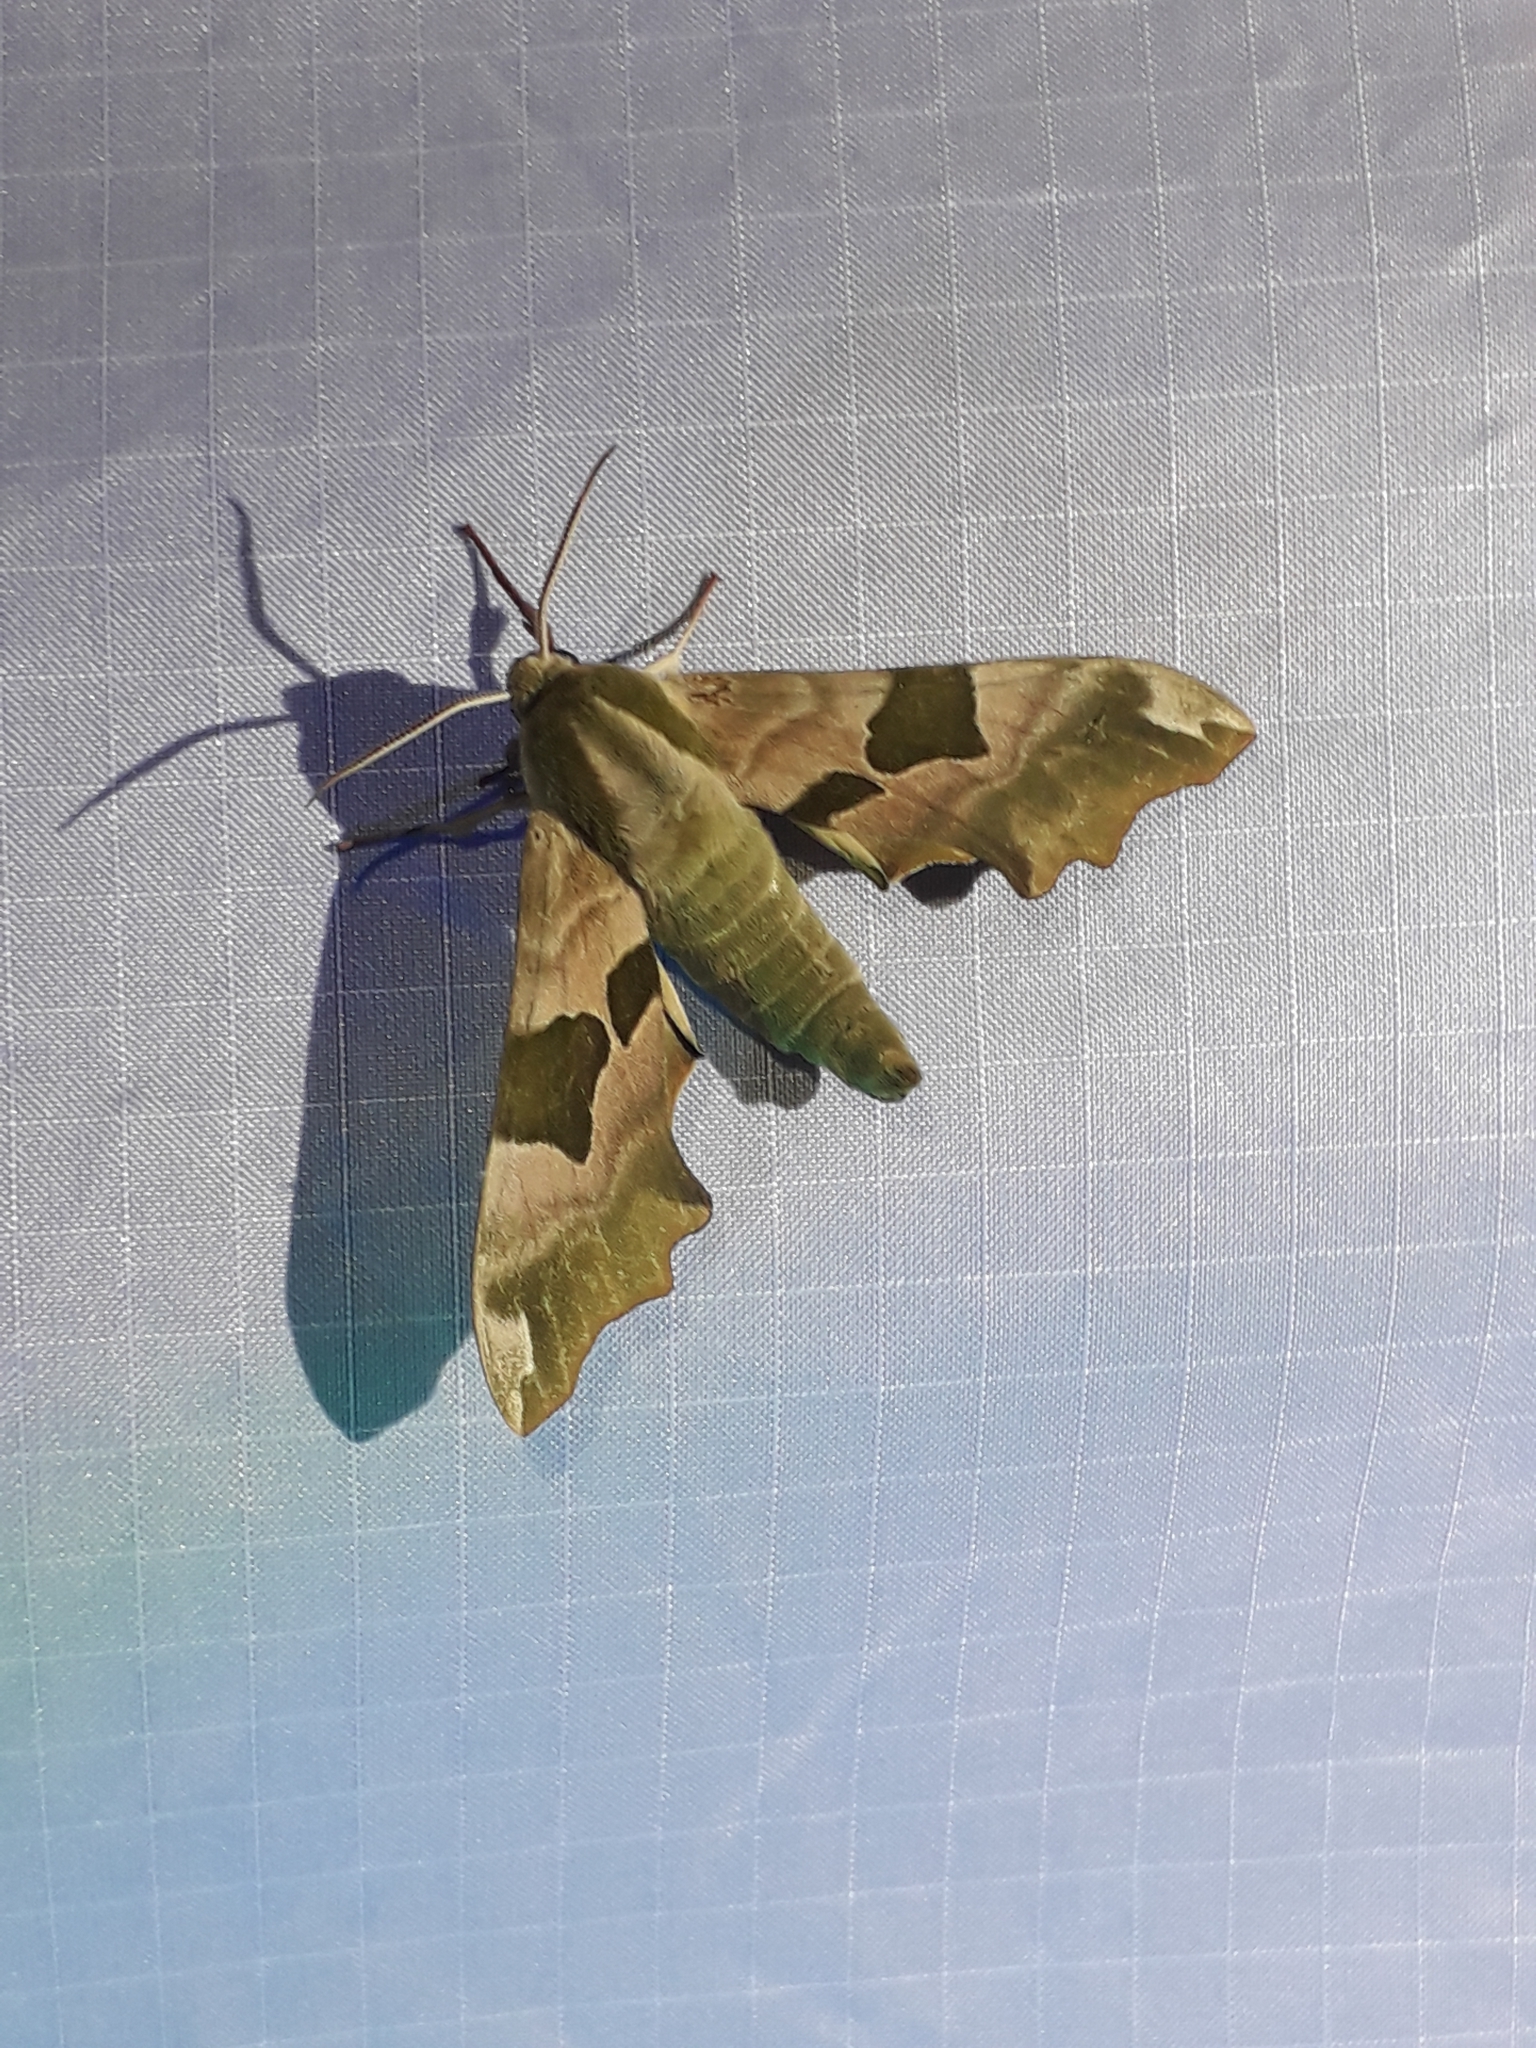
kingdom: Animalia
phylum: Arthropoda
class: Insecta
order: Lepidoptera
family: Sphingidae
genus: Mimas
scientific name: Mimas tiliae
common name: Lime hawk-moth
